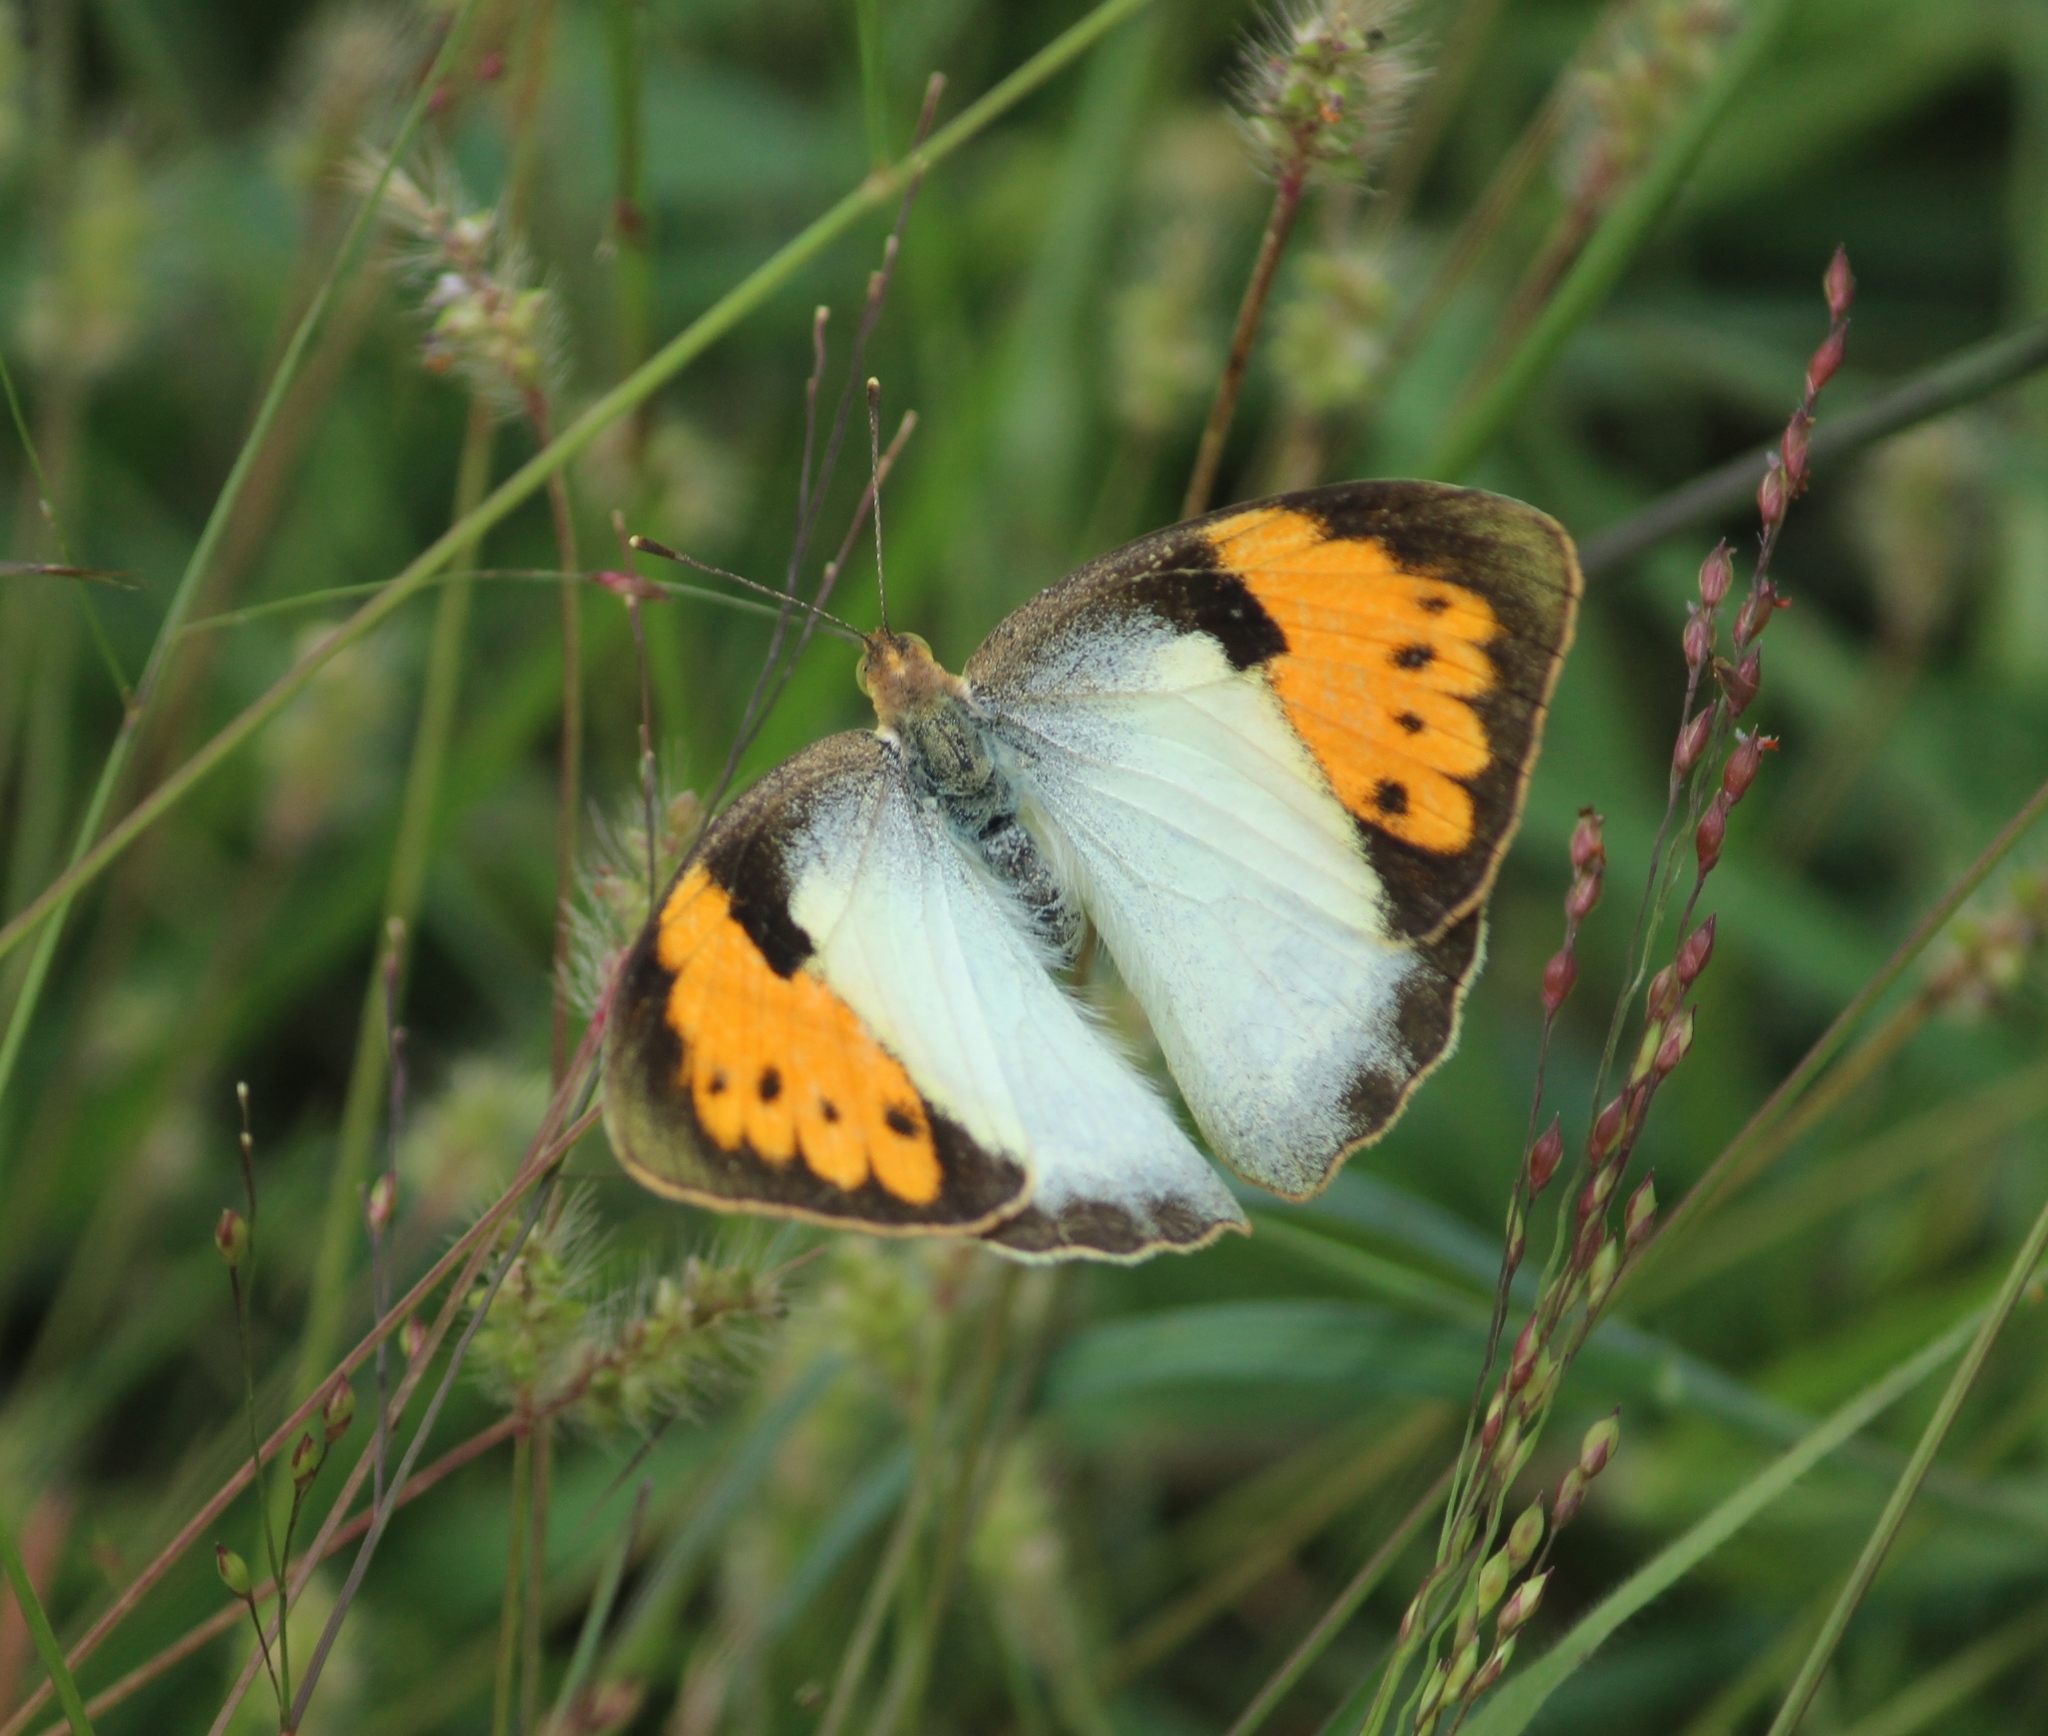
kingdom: Animalia
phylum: Arthropoda
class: Insecta
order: Lepidoptera
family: Pieridae
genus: Ixias
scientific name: Ixias marianne
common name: White orange tip
